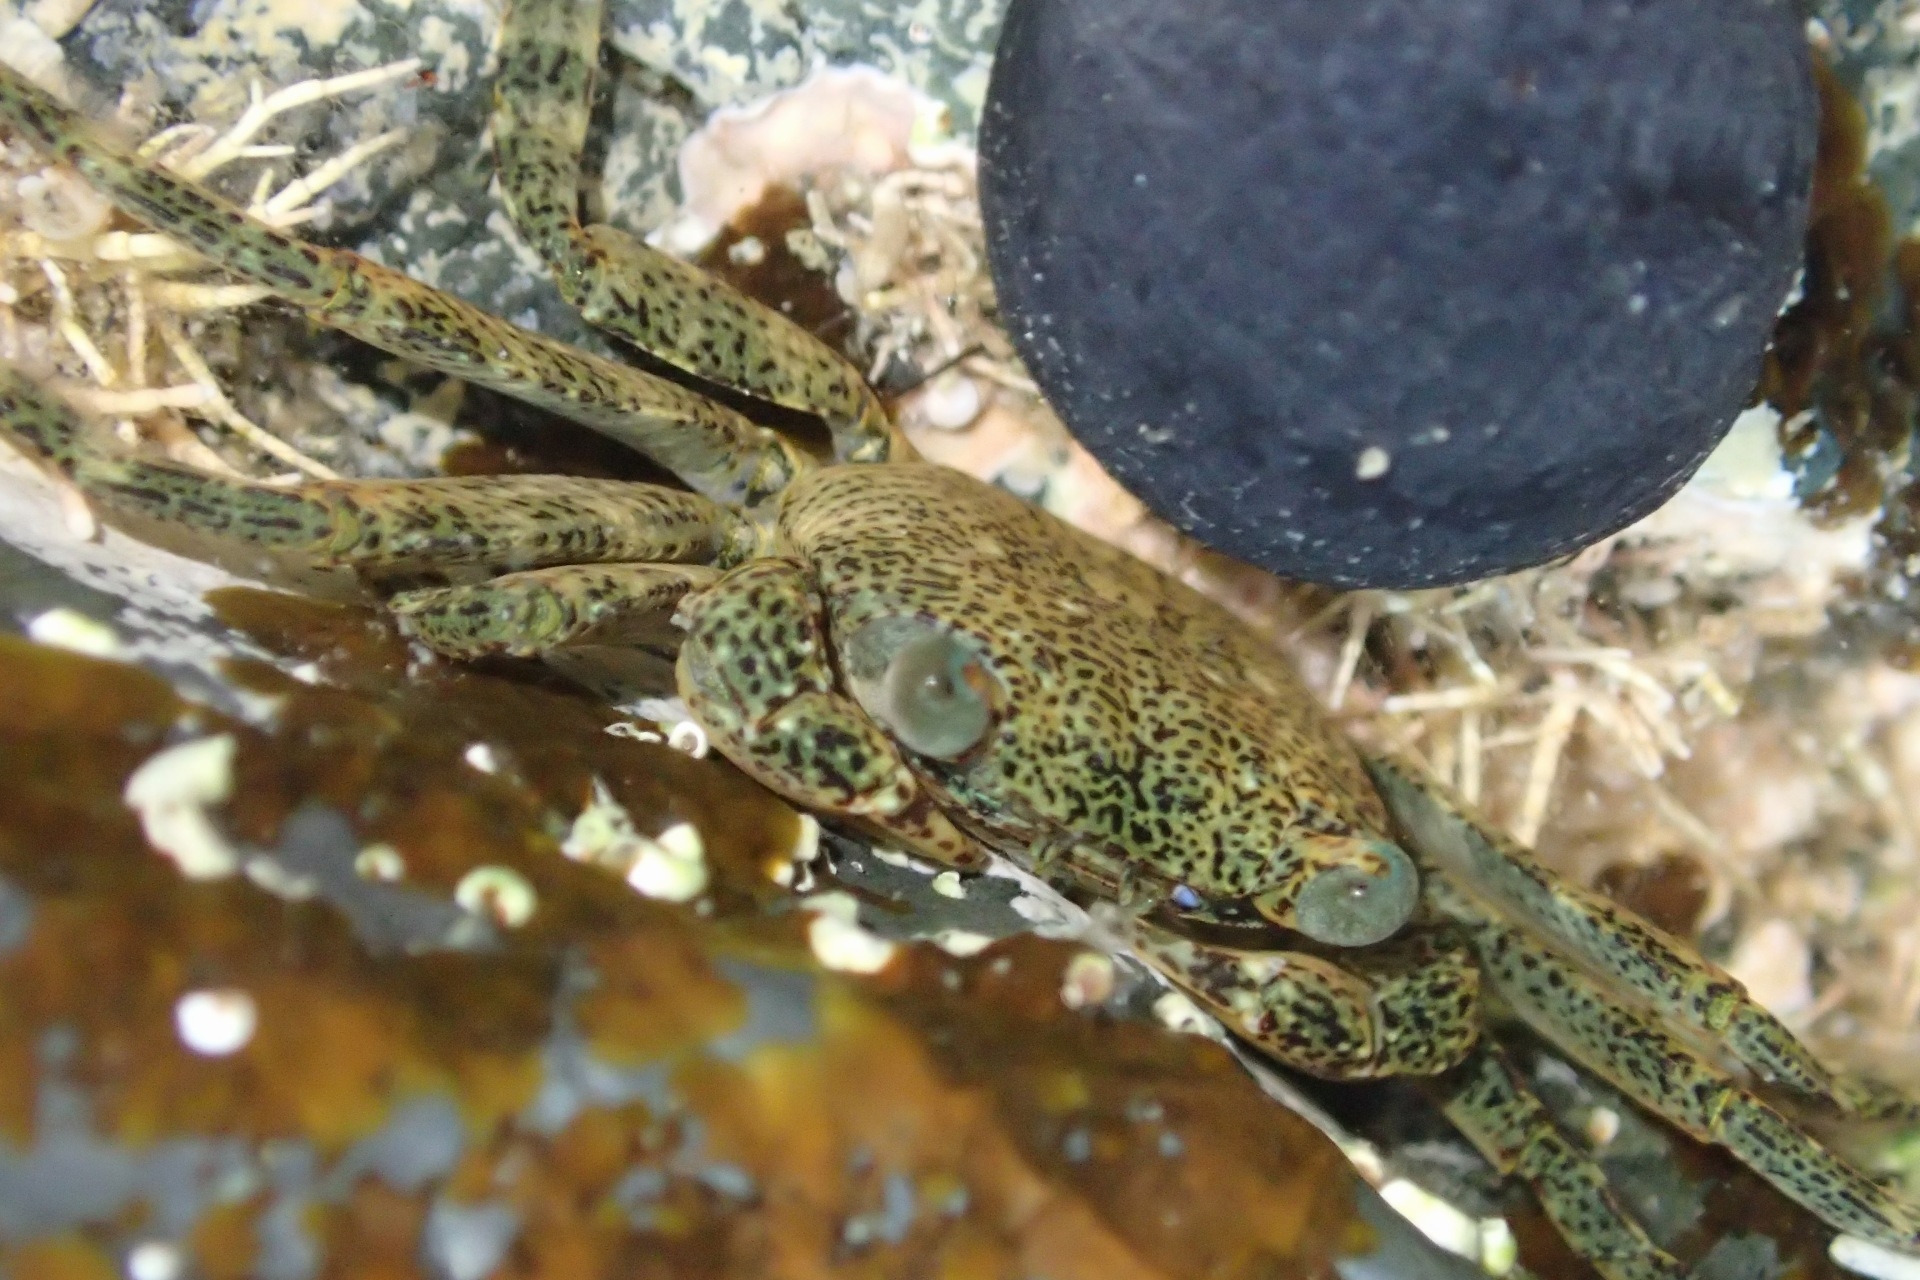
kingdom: Animalia
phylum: Arthropoda
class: Malacostraca
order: Decapoda
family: Grapsidae
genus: Leptograpsus
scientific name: Leptograpsus variegatus
